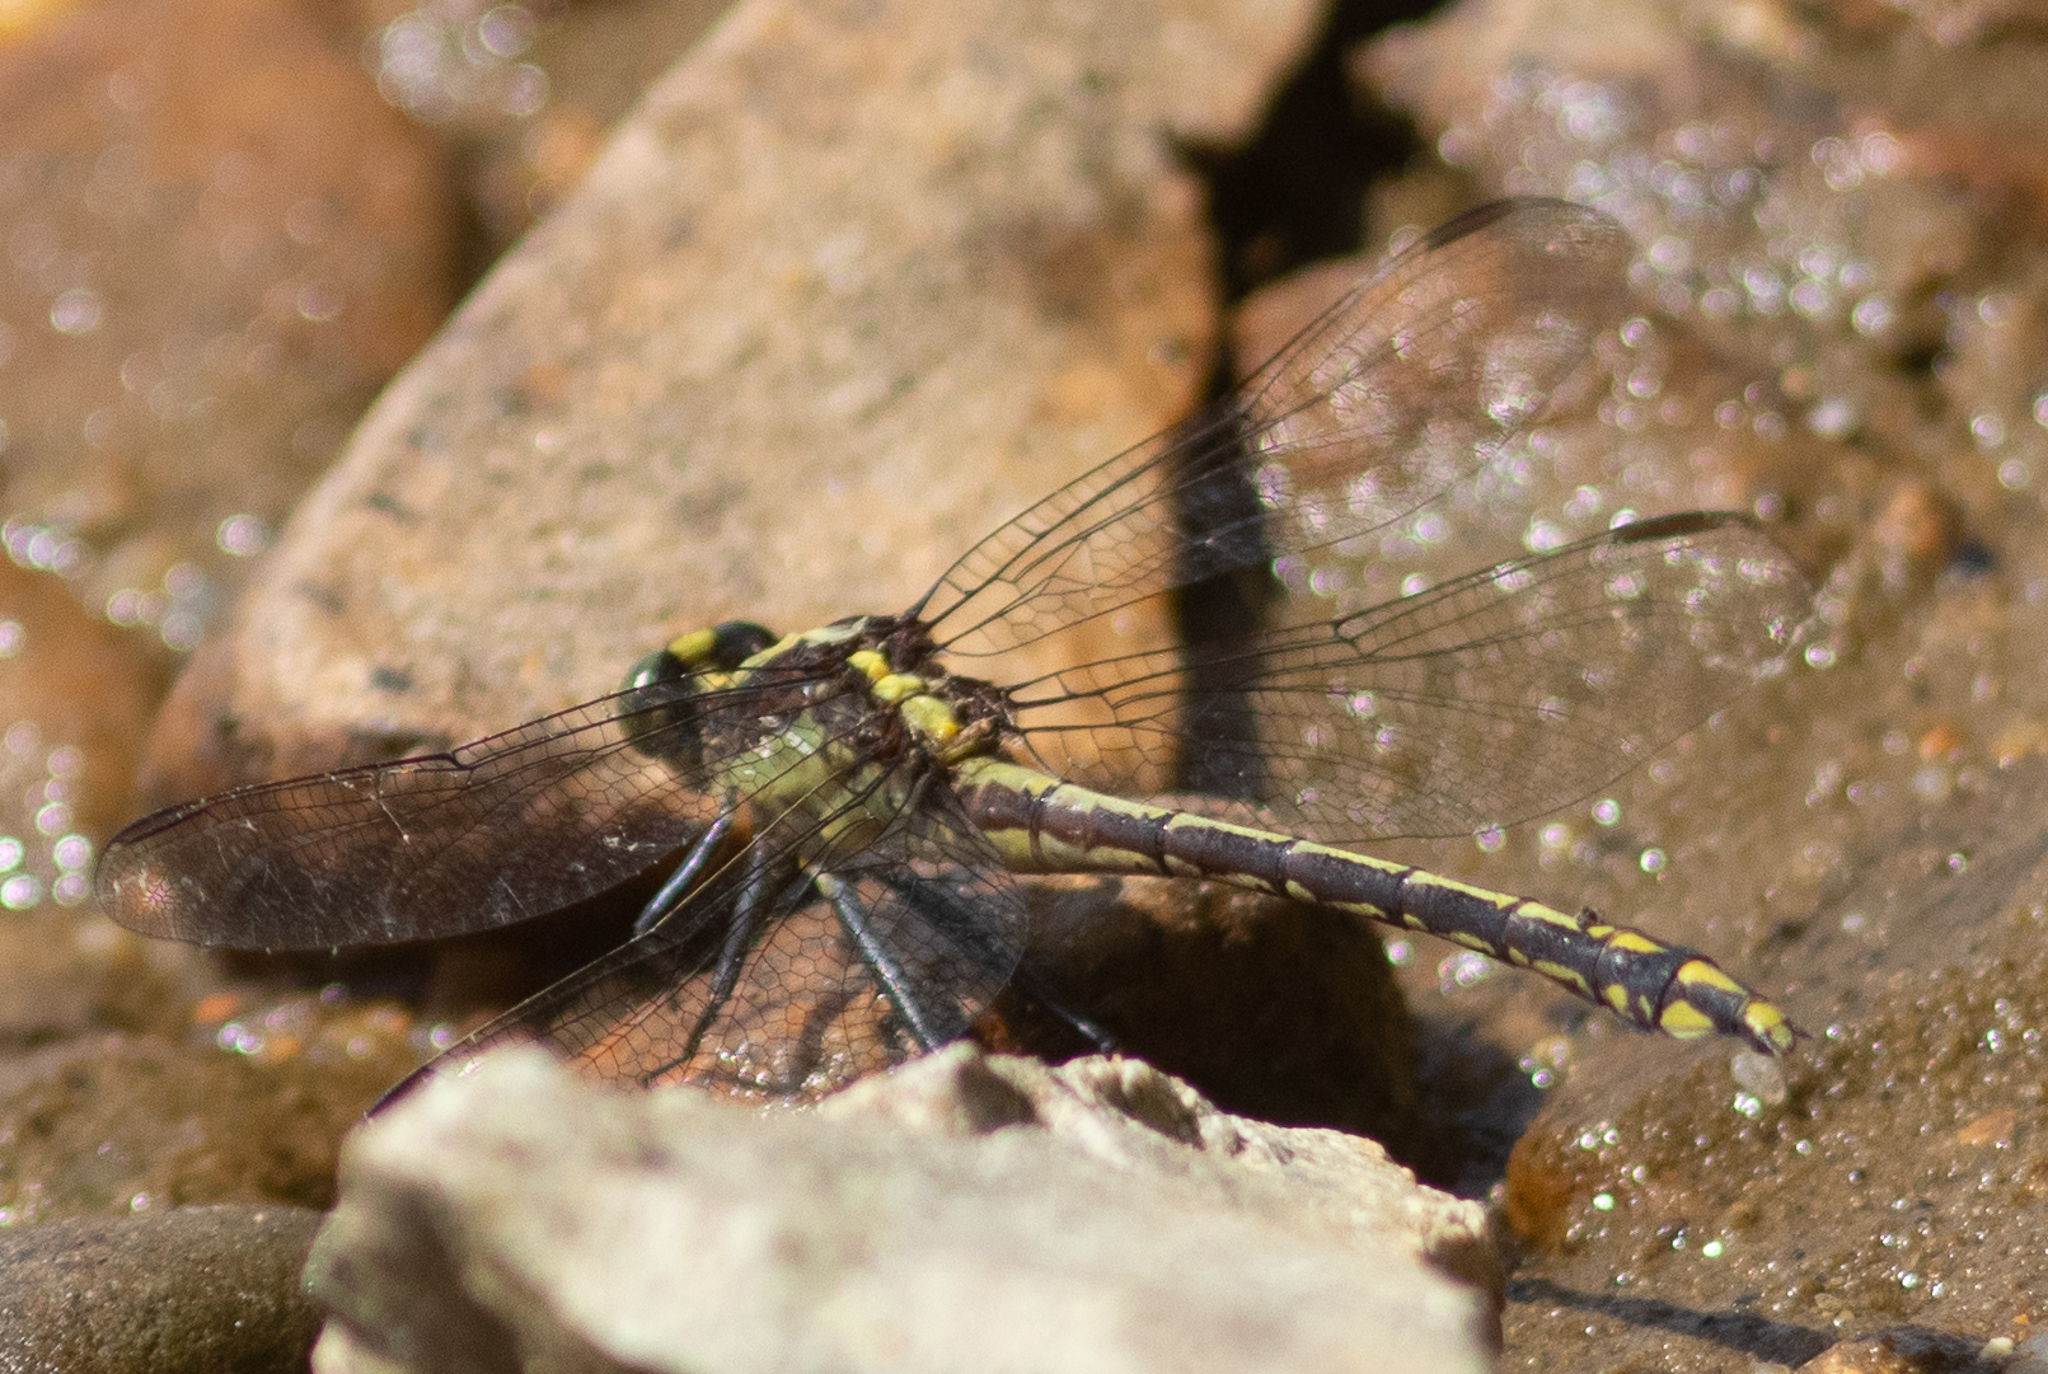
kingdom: Animalia
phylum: Arthropoda
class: Insecta
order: Odonata
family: Gomphidae
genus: Dromogomphus
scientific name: Dromogomphus spinosus
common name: Black-shouldered spinyleg
